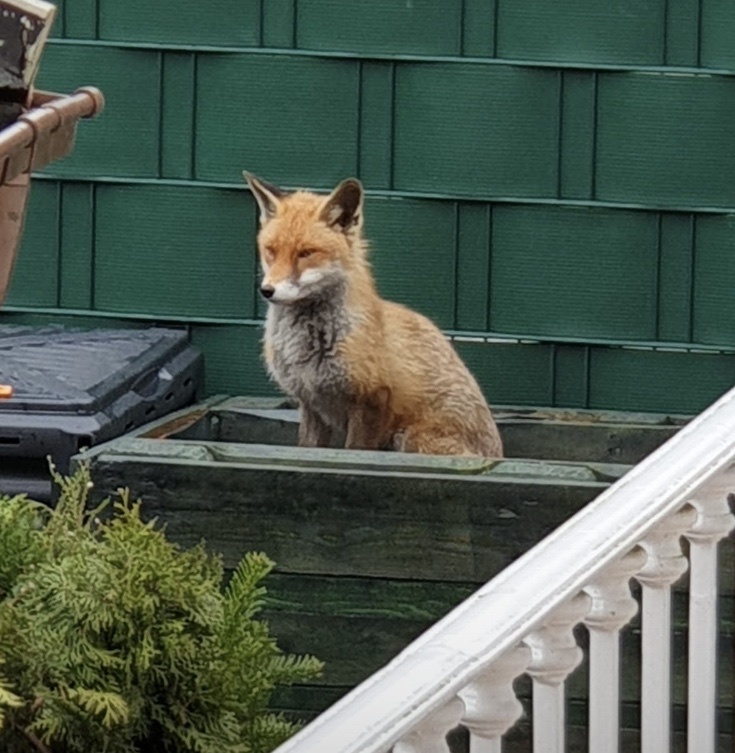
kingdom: Animalia
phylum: Chordata
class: Mammalia
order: Carnivora
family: Canidae
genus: Vulpes
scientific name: Vulpes vulpes
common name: Red fox
